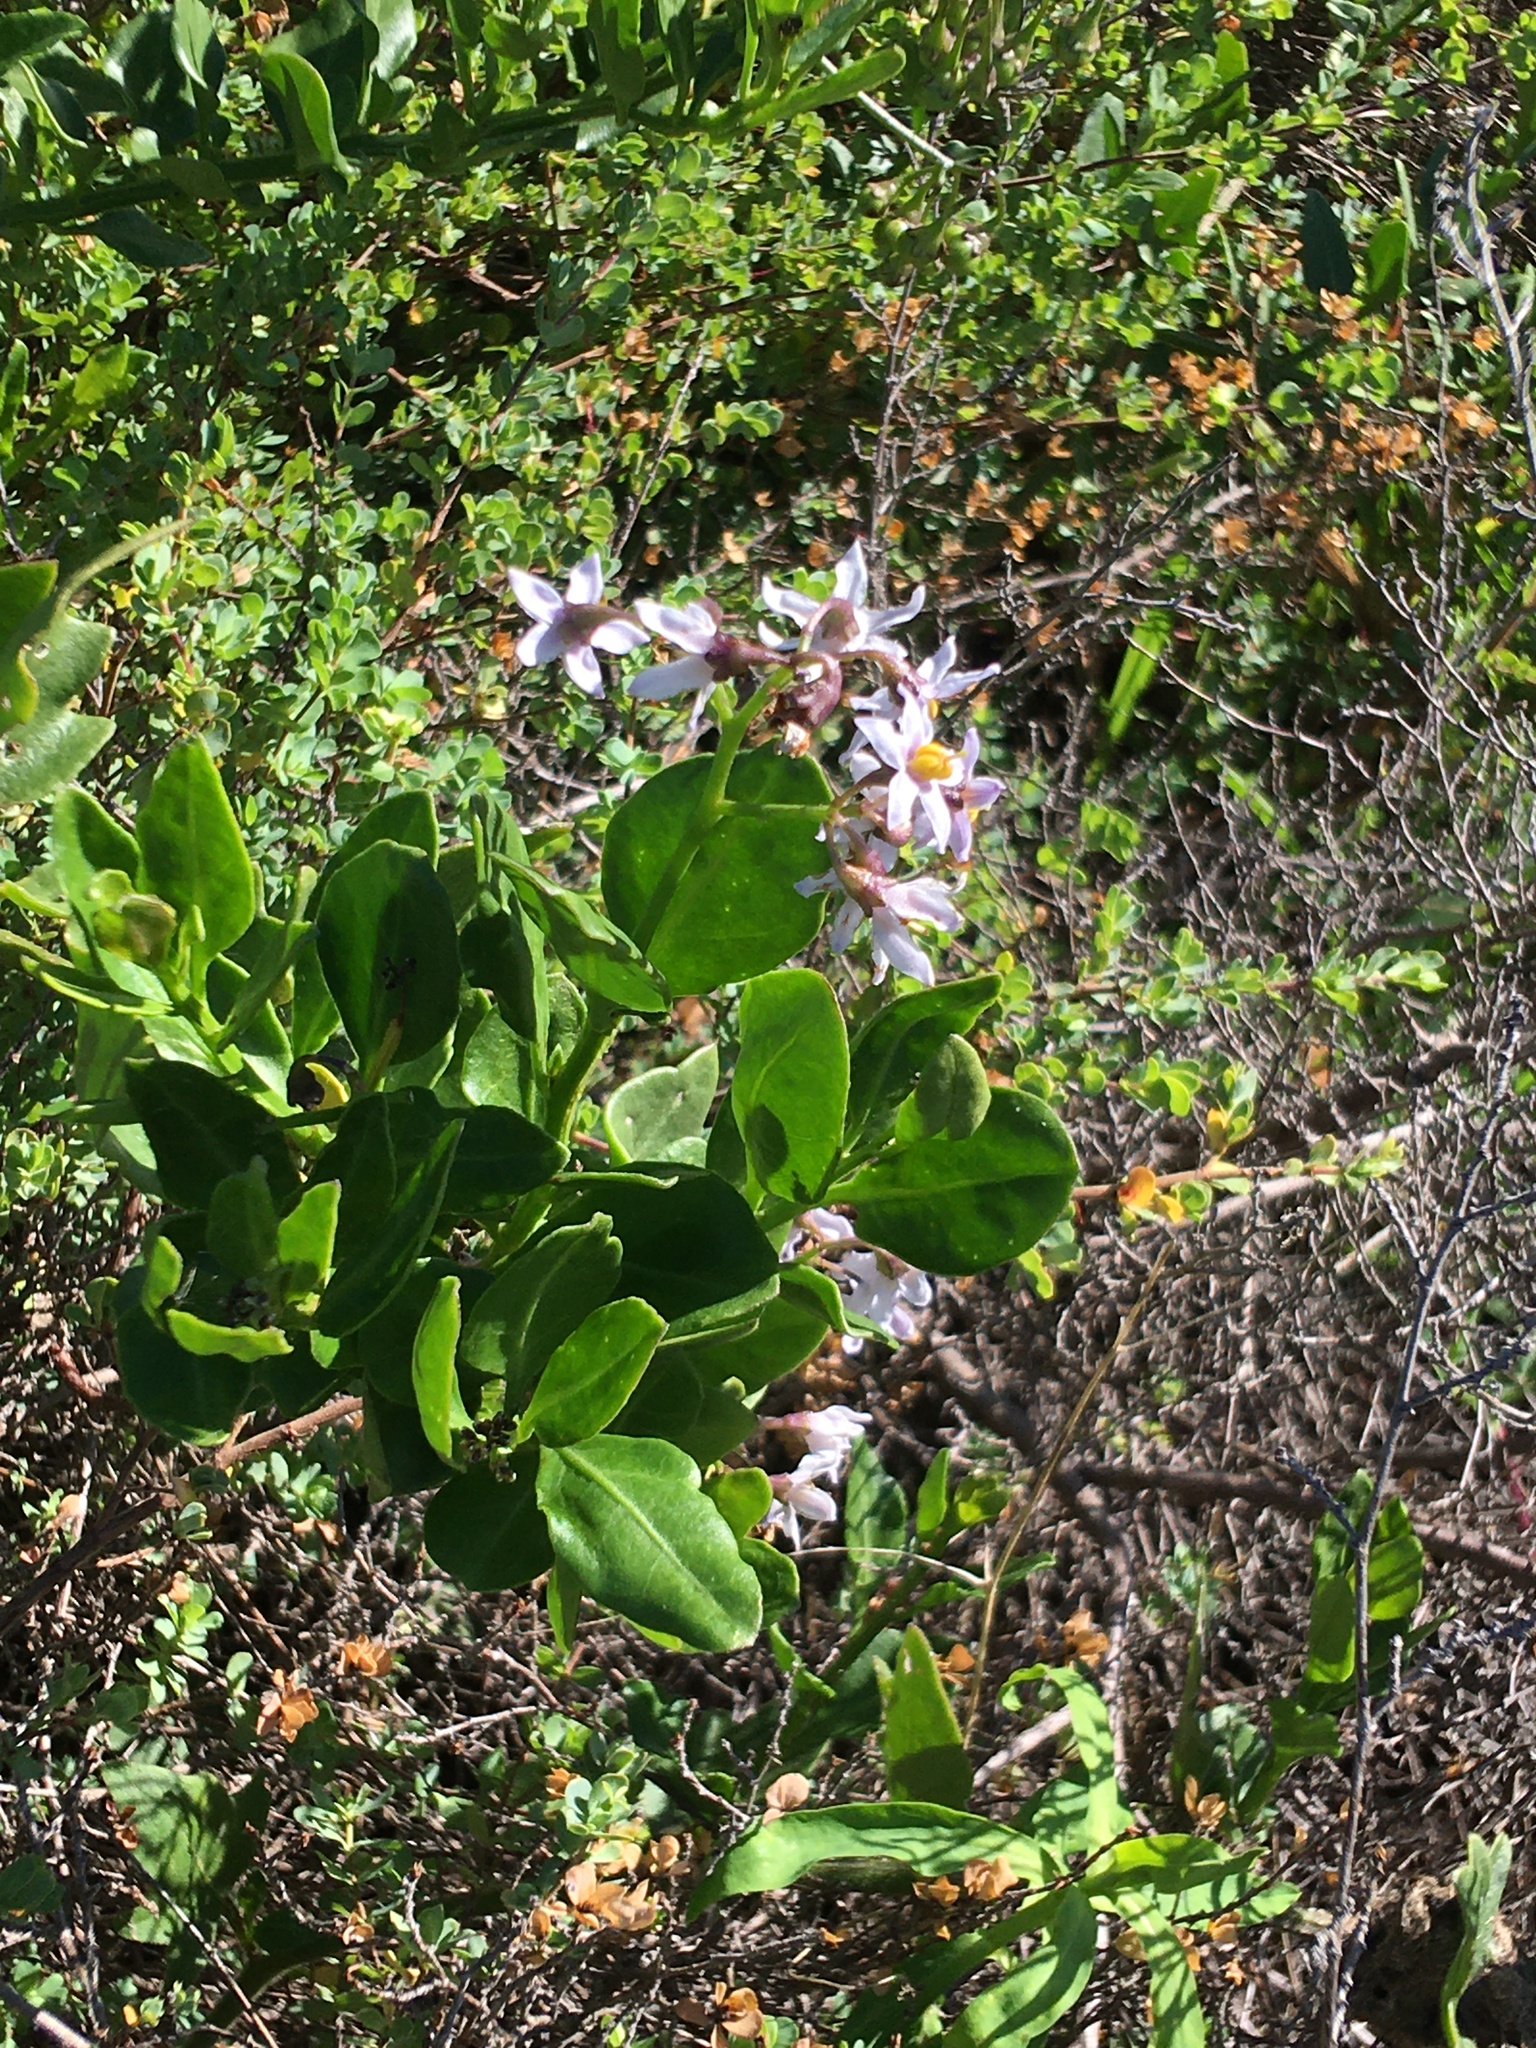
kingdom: Plantae
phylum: Tracheophyta
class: Magnoliopsida
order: Solanales
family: Solanaceae
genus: Solanum
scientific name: Solanum africanum
